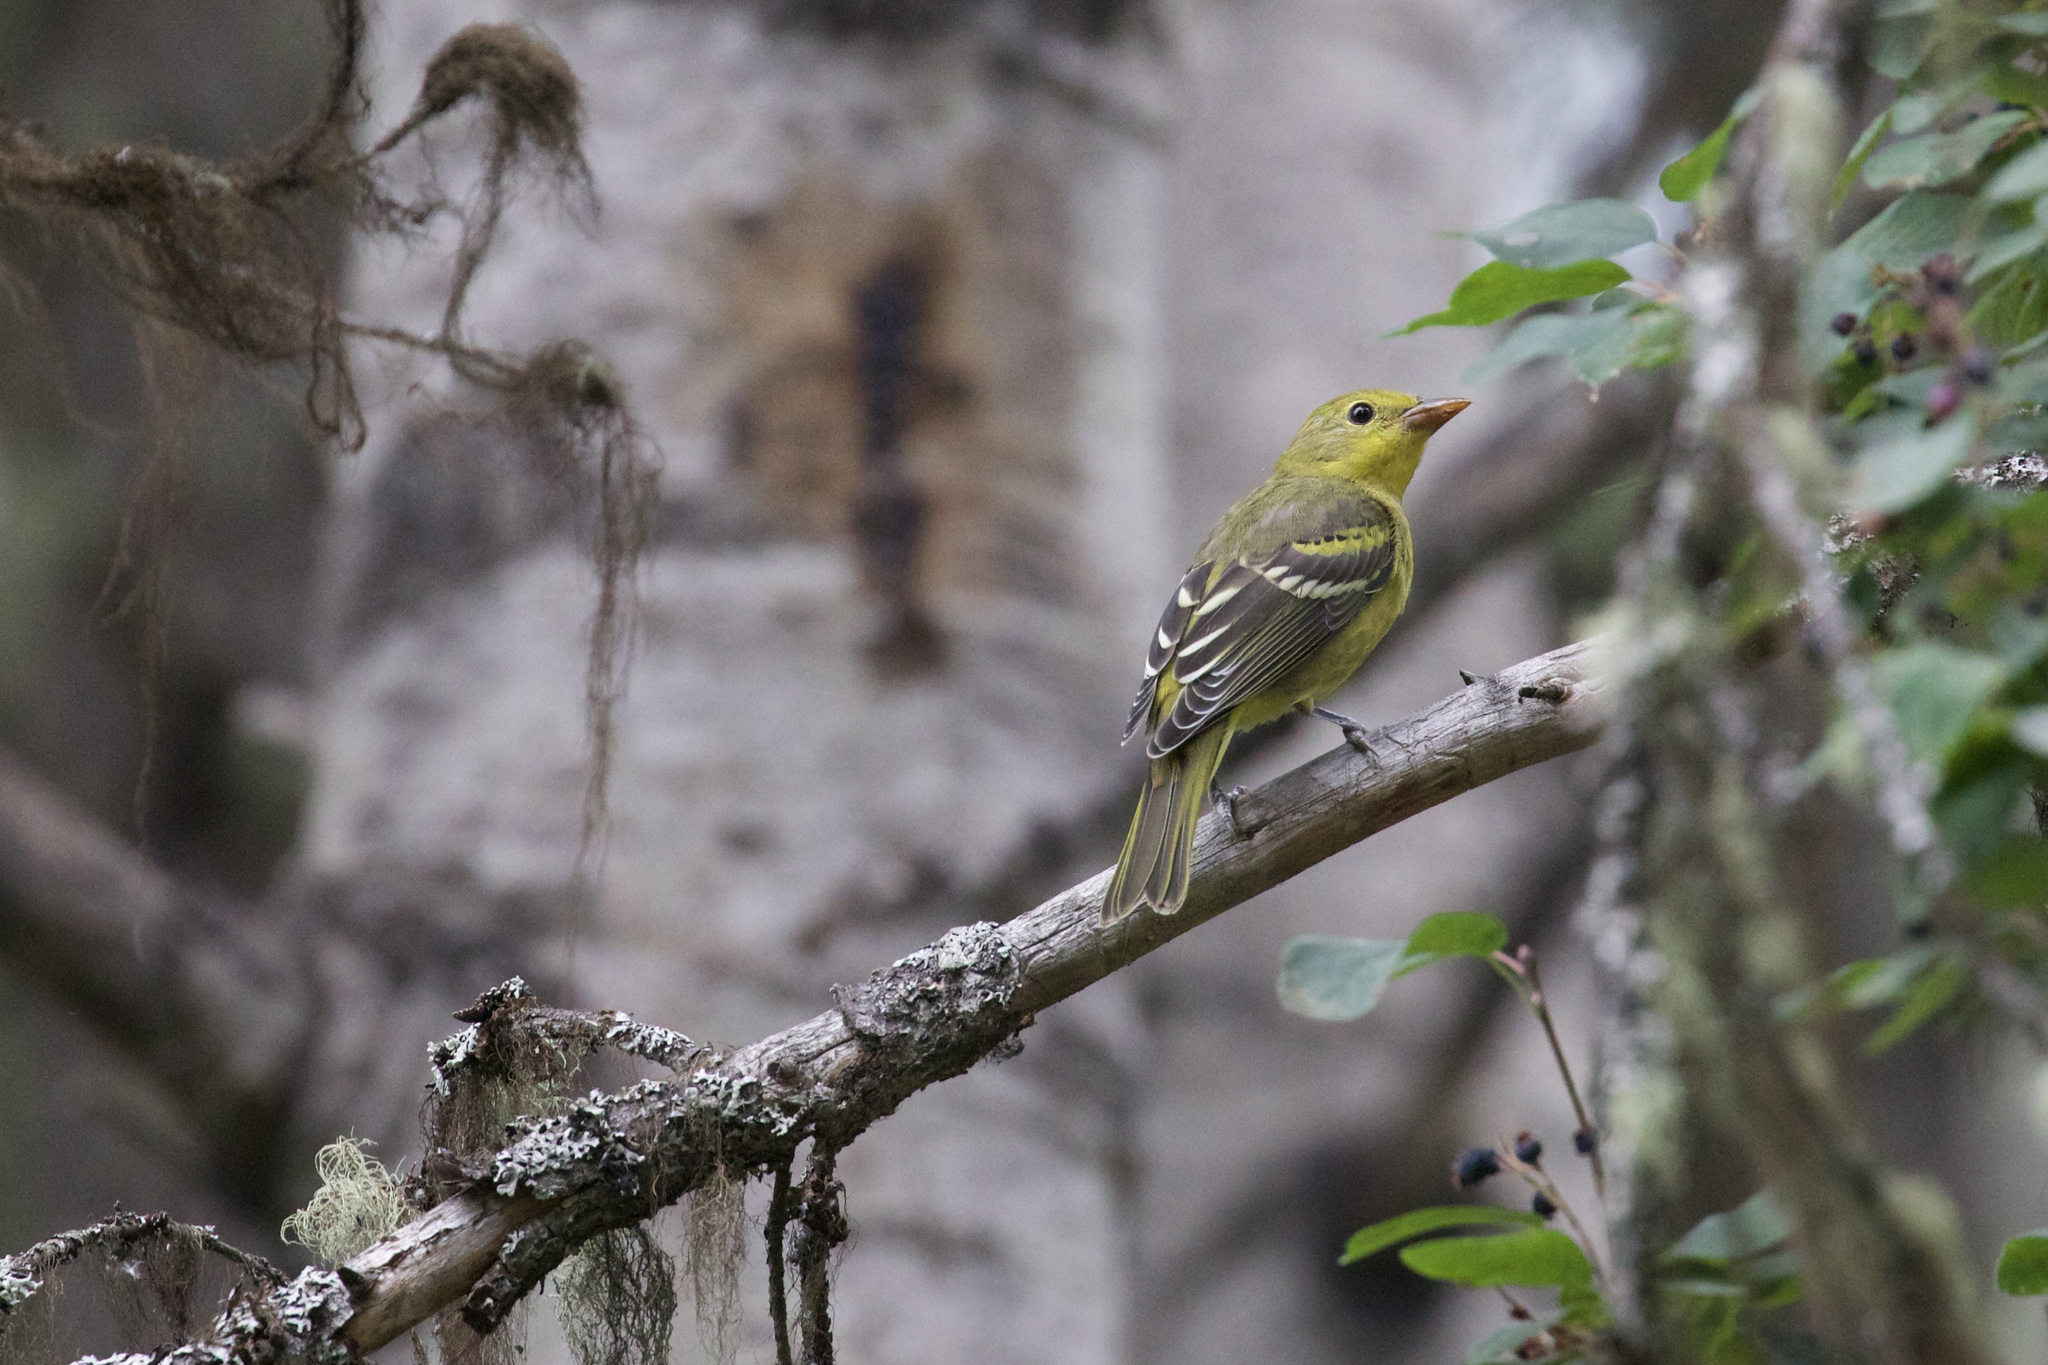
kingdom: Animalia
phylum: Chordata
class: Aves
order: Passeriformes
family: Cardinalidae
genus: Piranga
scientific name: Piranga ludoviciana
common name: Western tanager
